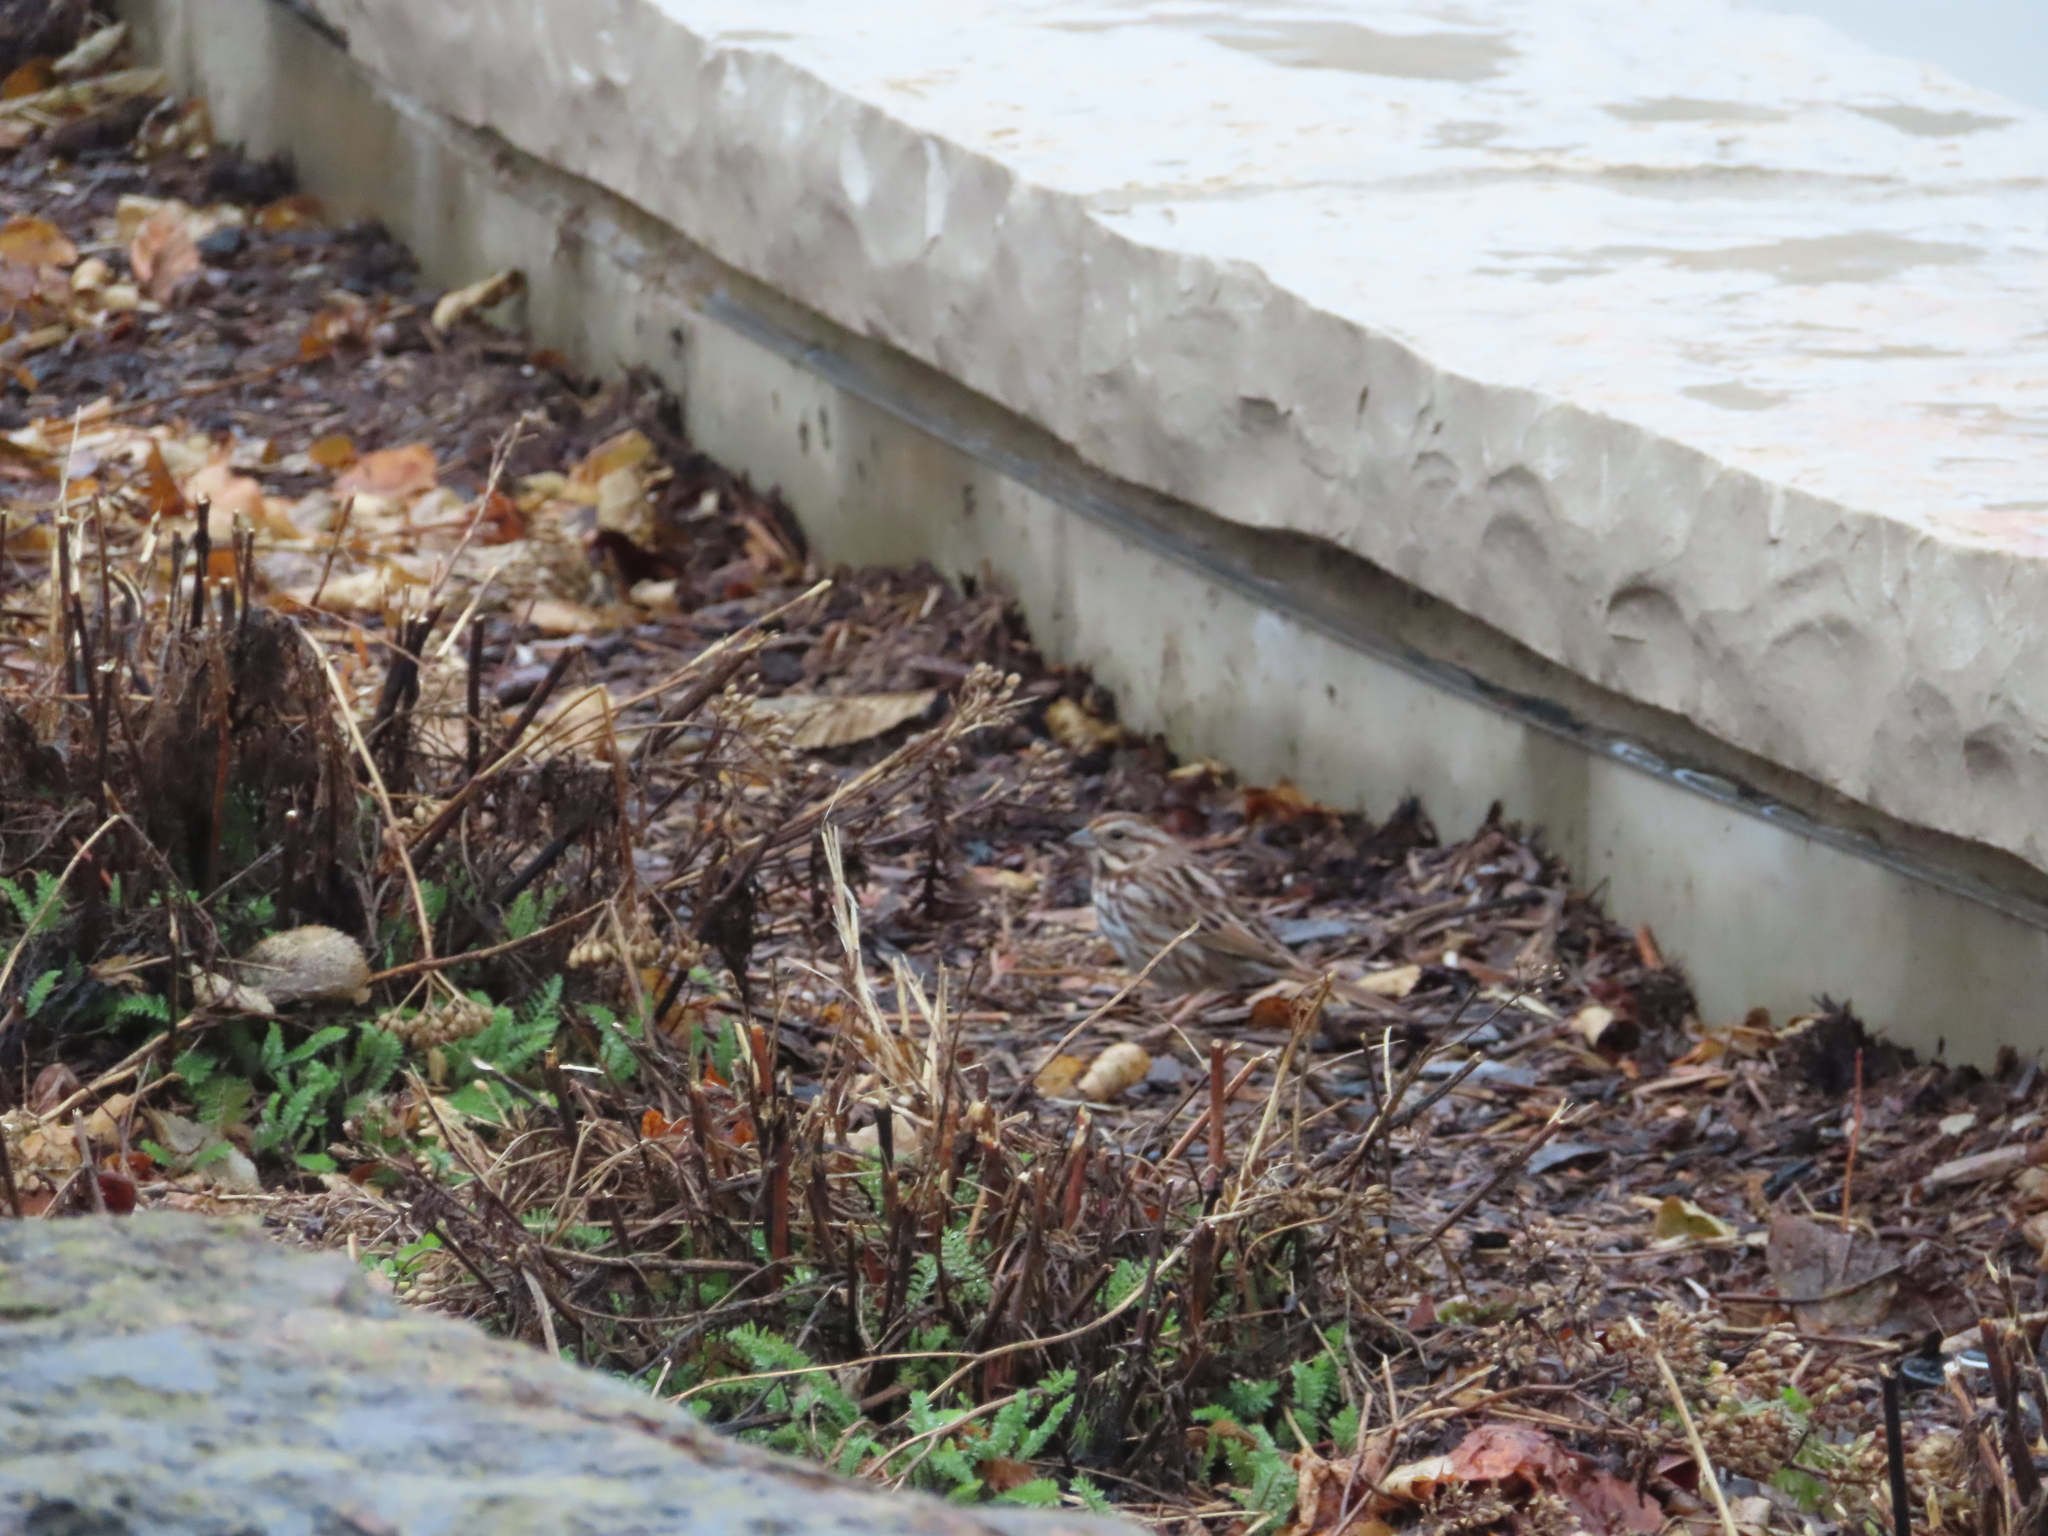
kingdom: Animalia
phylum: Chordata
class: Aves
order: Passeriformes
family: Passerellidae
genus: Melospiza
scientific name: Melospiza melodia
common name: Song sparrow
